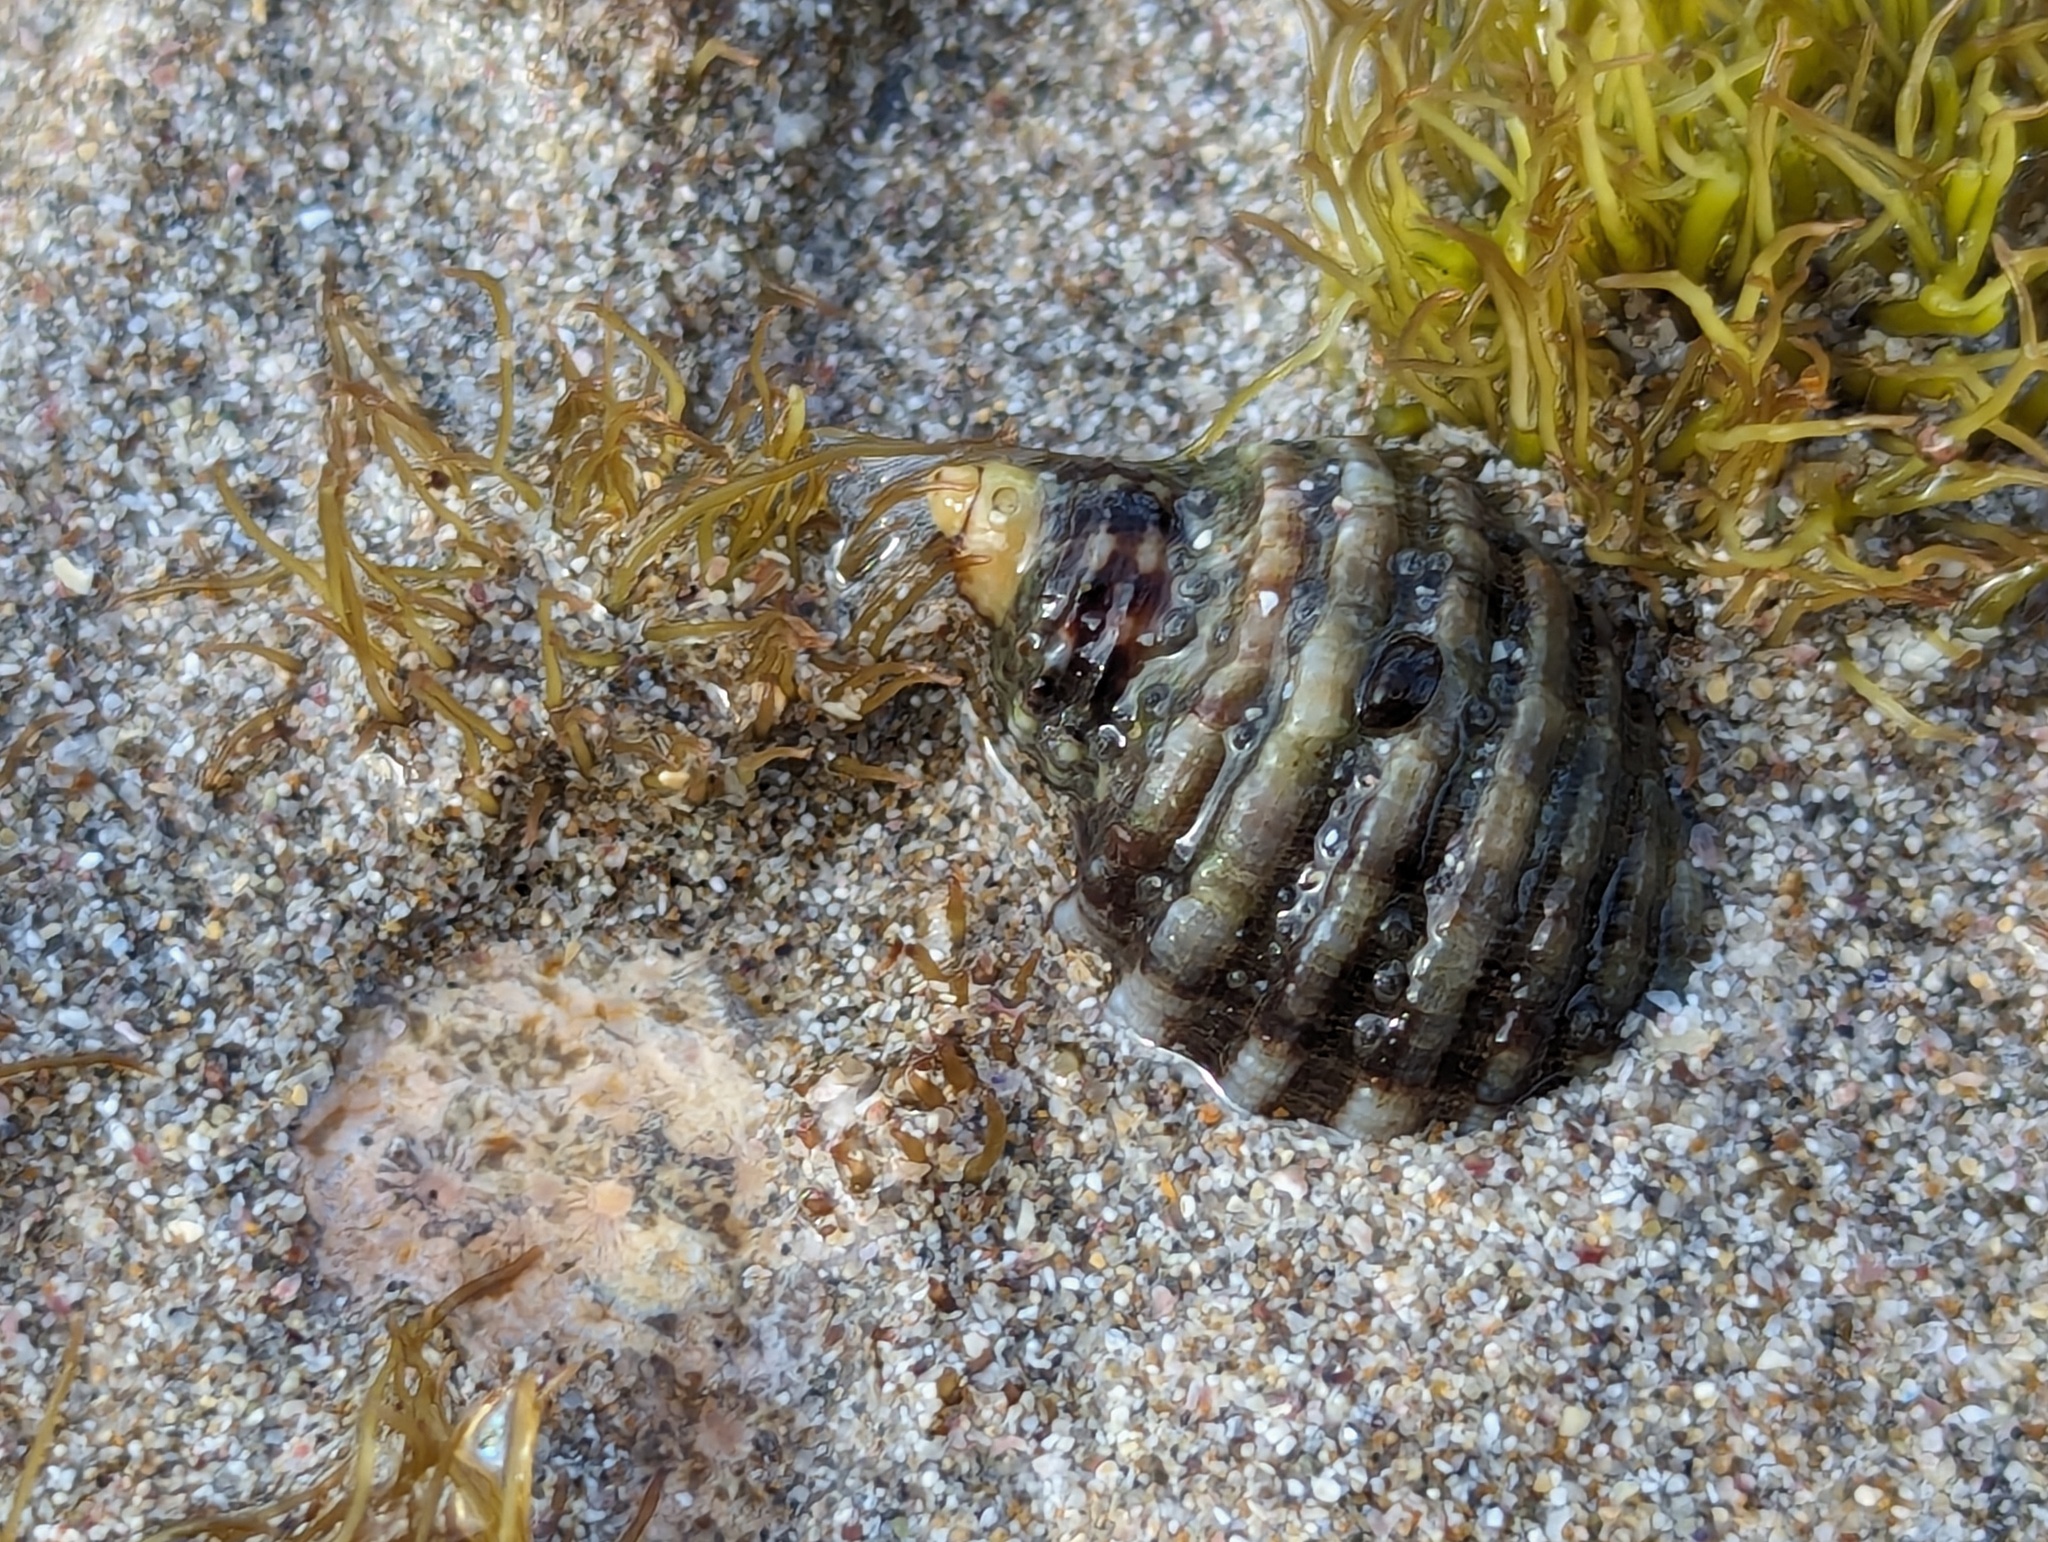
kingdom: Animalia
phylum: Mollusca
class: Gastropoda
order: Neogastropoda
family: Muricidae
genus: Dicathais
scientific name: Dicathais orbita
